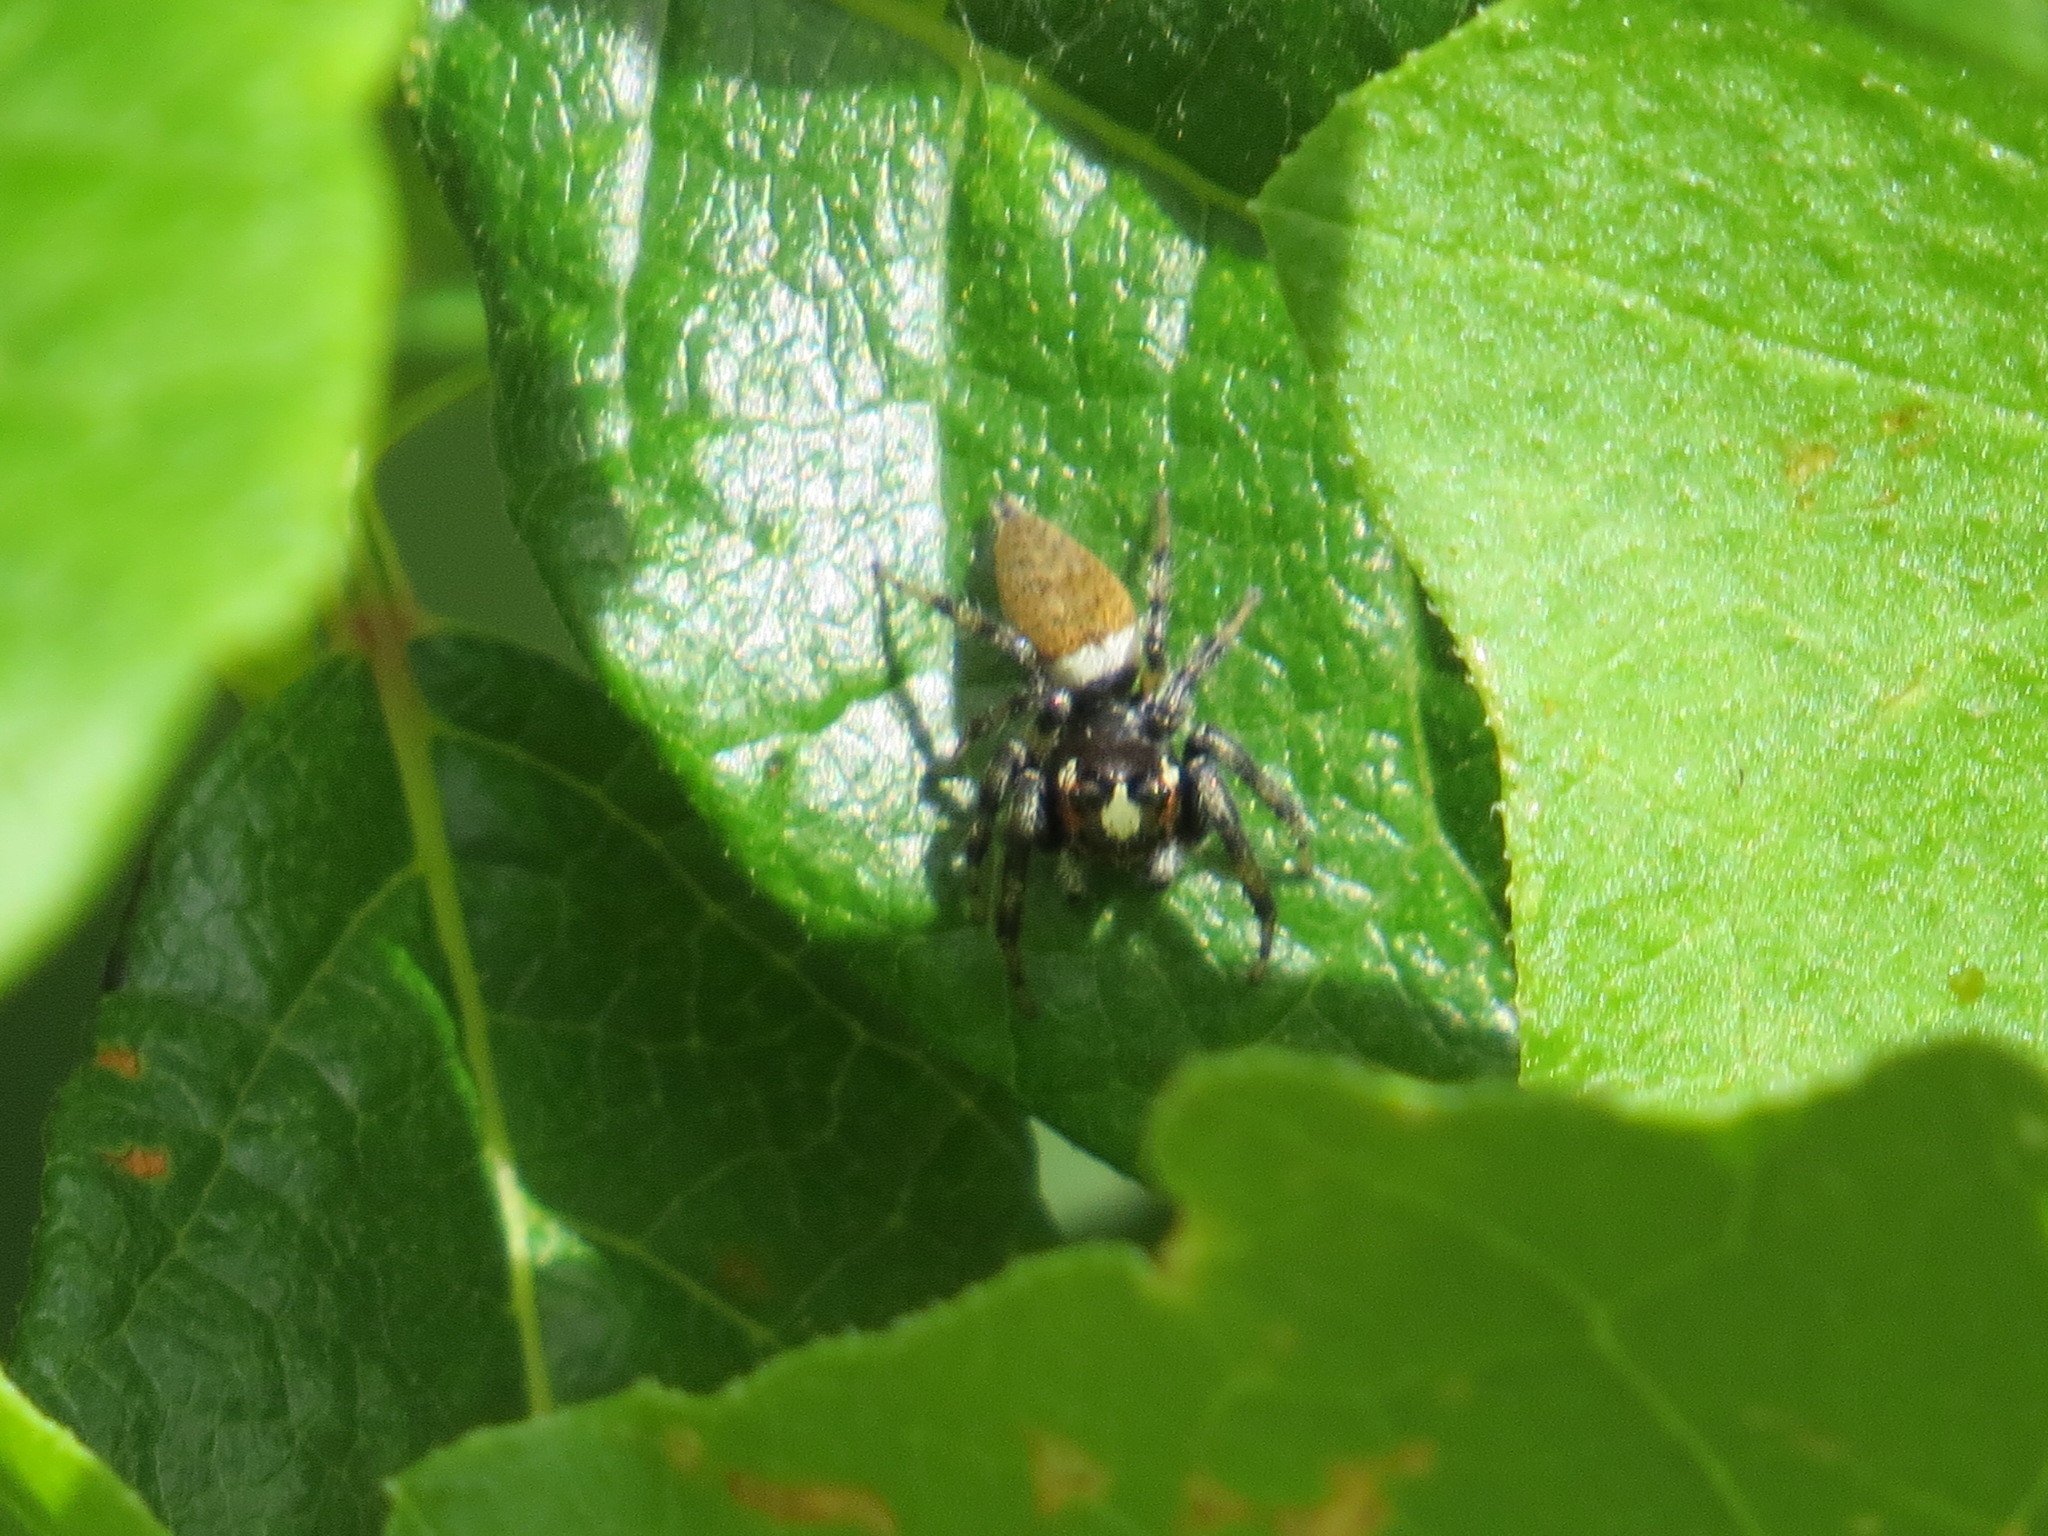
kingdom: Animalia
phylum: Arthropoda
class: Arachnida
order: Araneae
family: Salticidae
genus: Colonus
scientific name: Colonus hesperus
